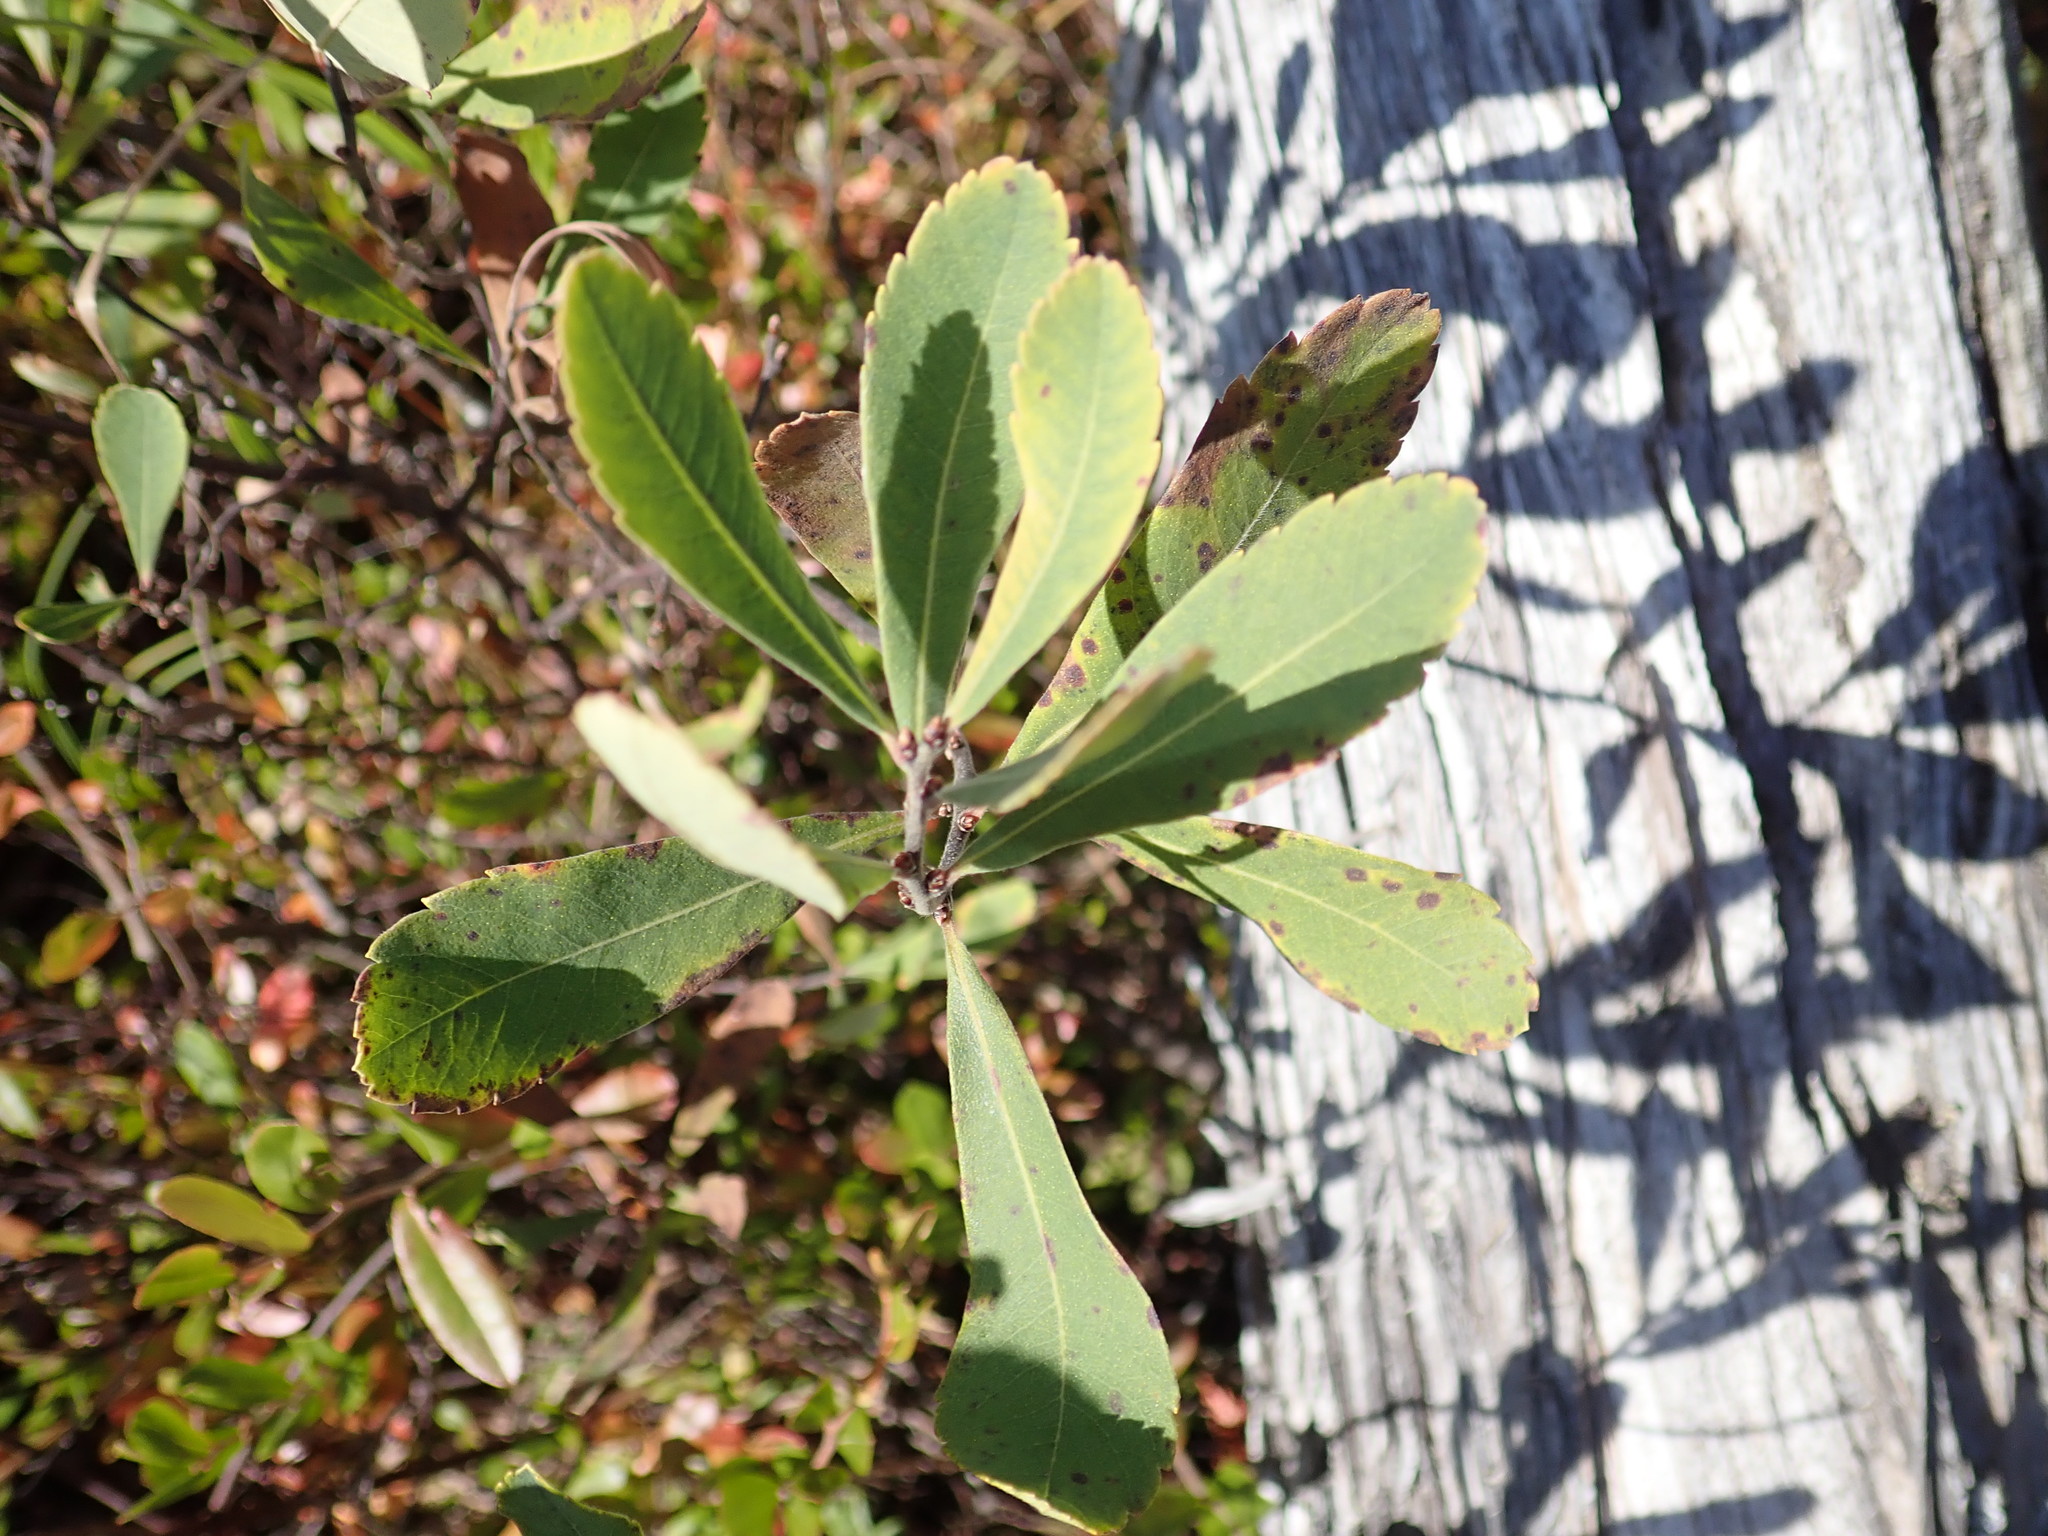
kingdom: Plantae
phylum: Tracheophyta
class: Magnoliopsida
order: Fagales
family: Myricaceae
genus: Myrica
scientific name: Myrica gale
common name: Sweet gale
